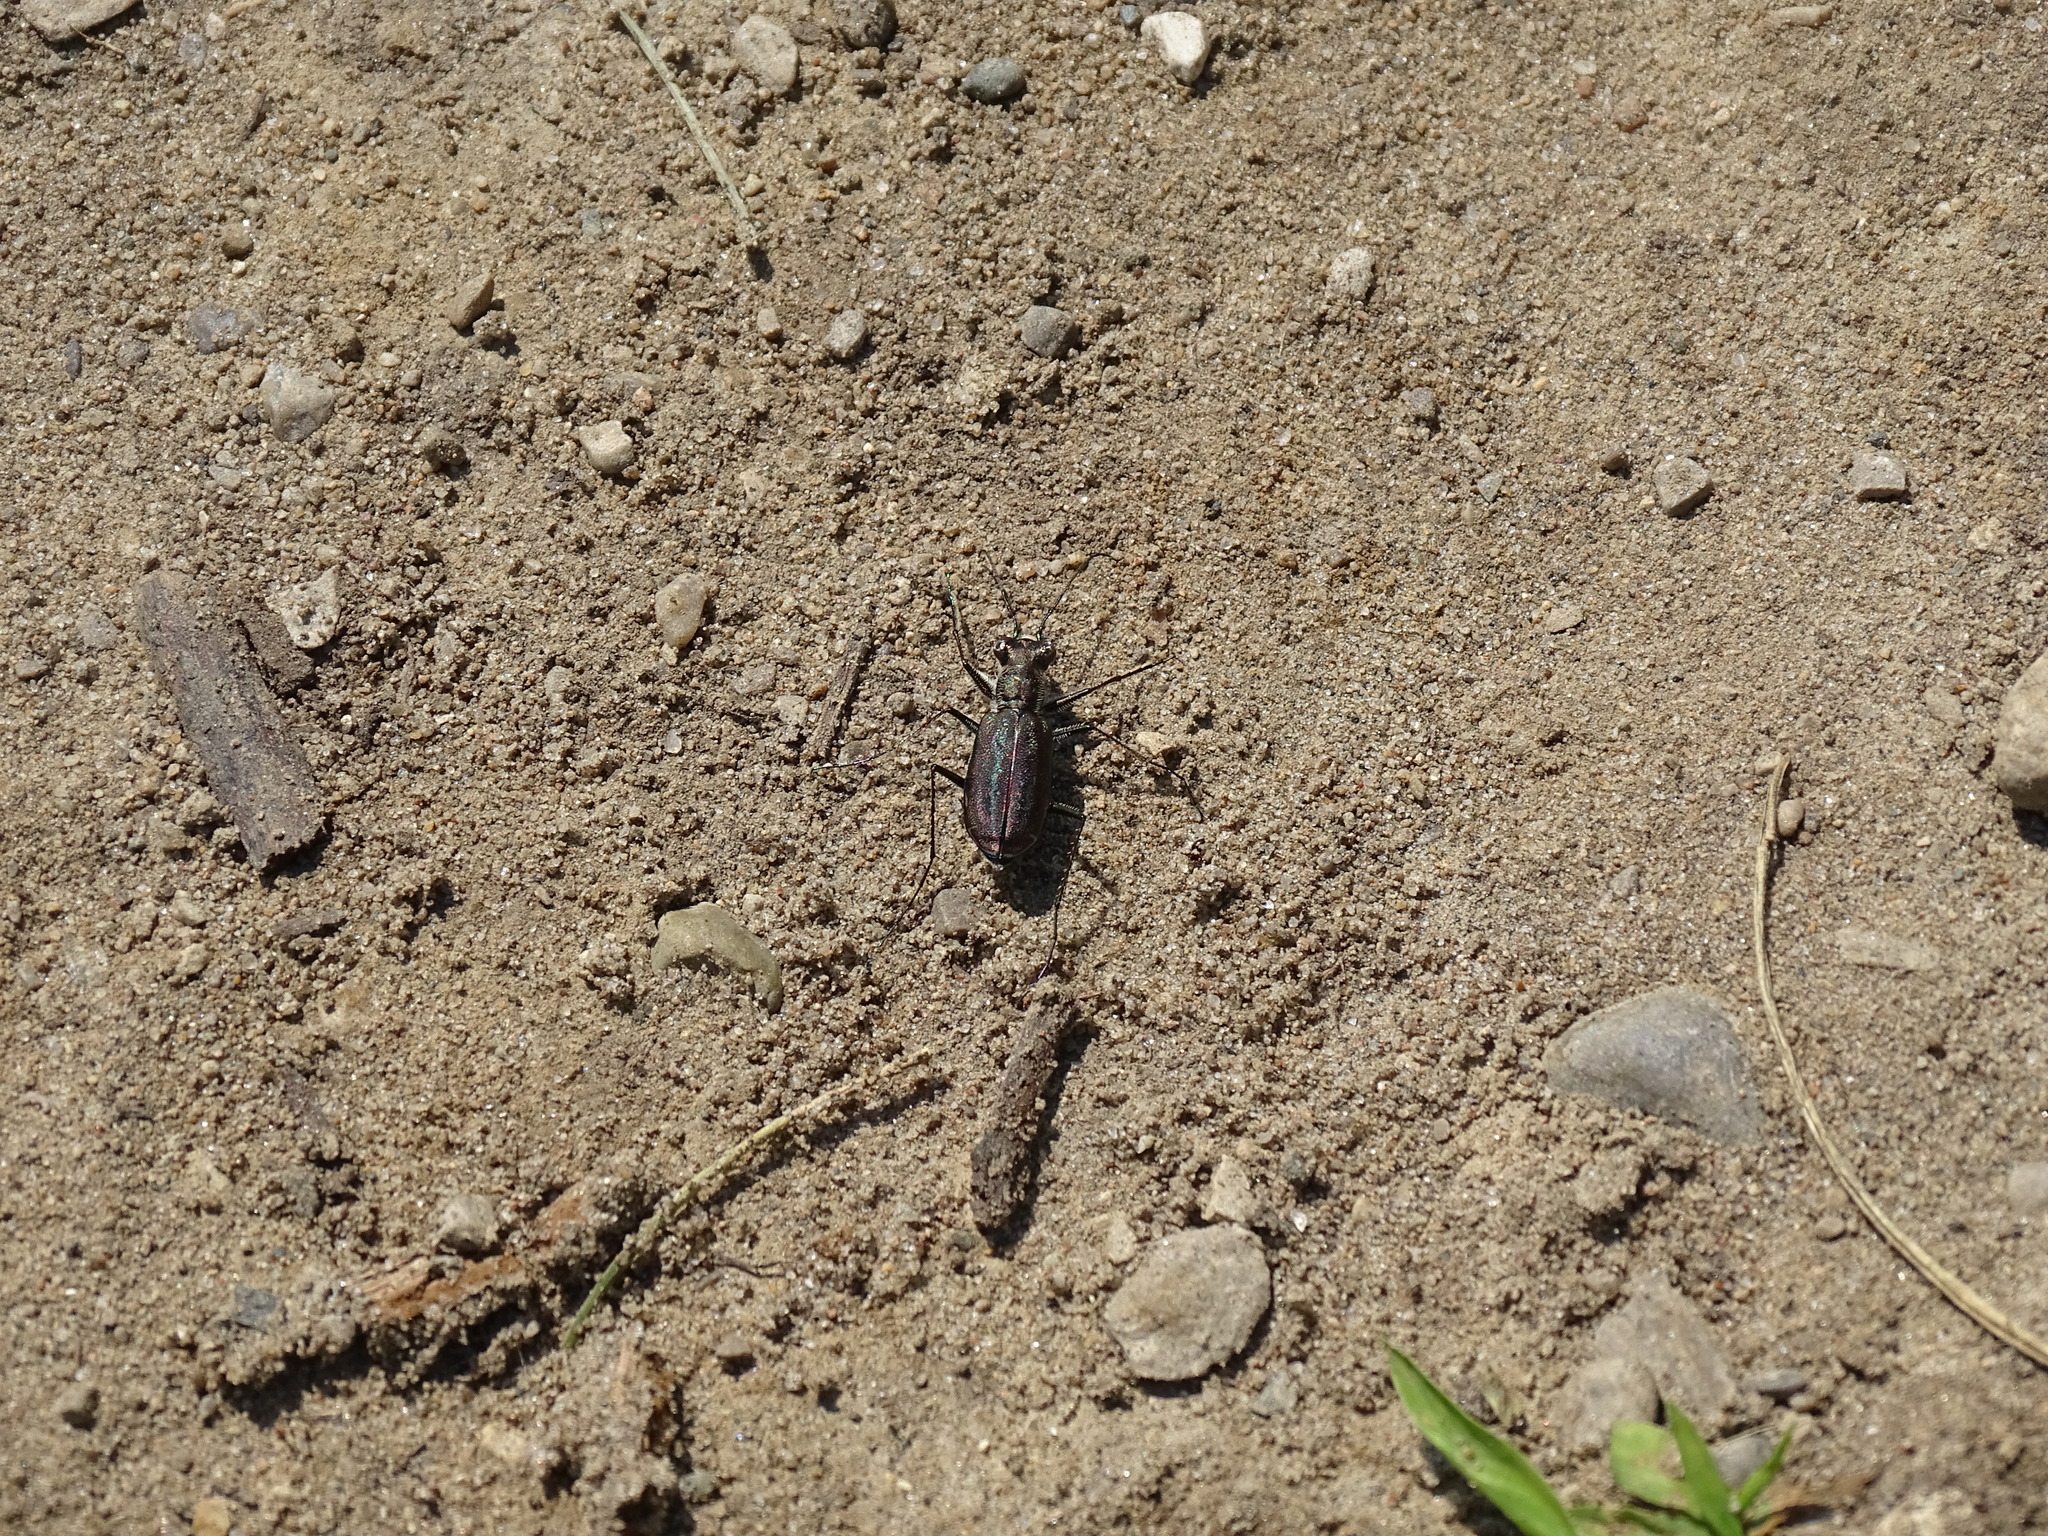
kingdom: Animalia
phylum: Arthropoda
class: Insecta
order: Coleoptera
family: Carabidae
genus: Cicindela
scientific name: Cicindela punctulata
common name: Punctured tiger beetle
